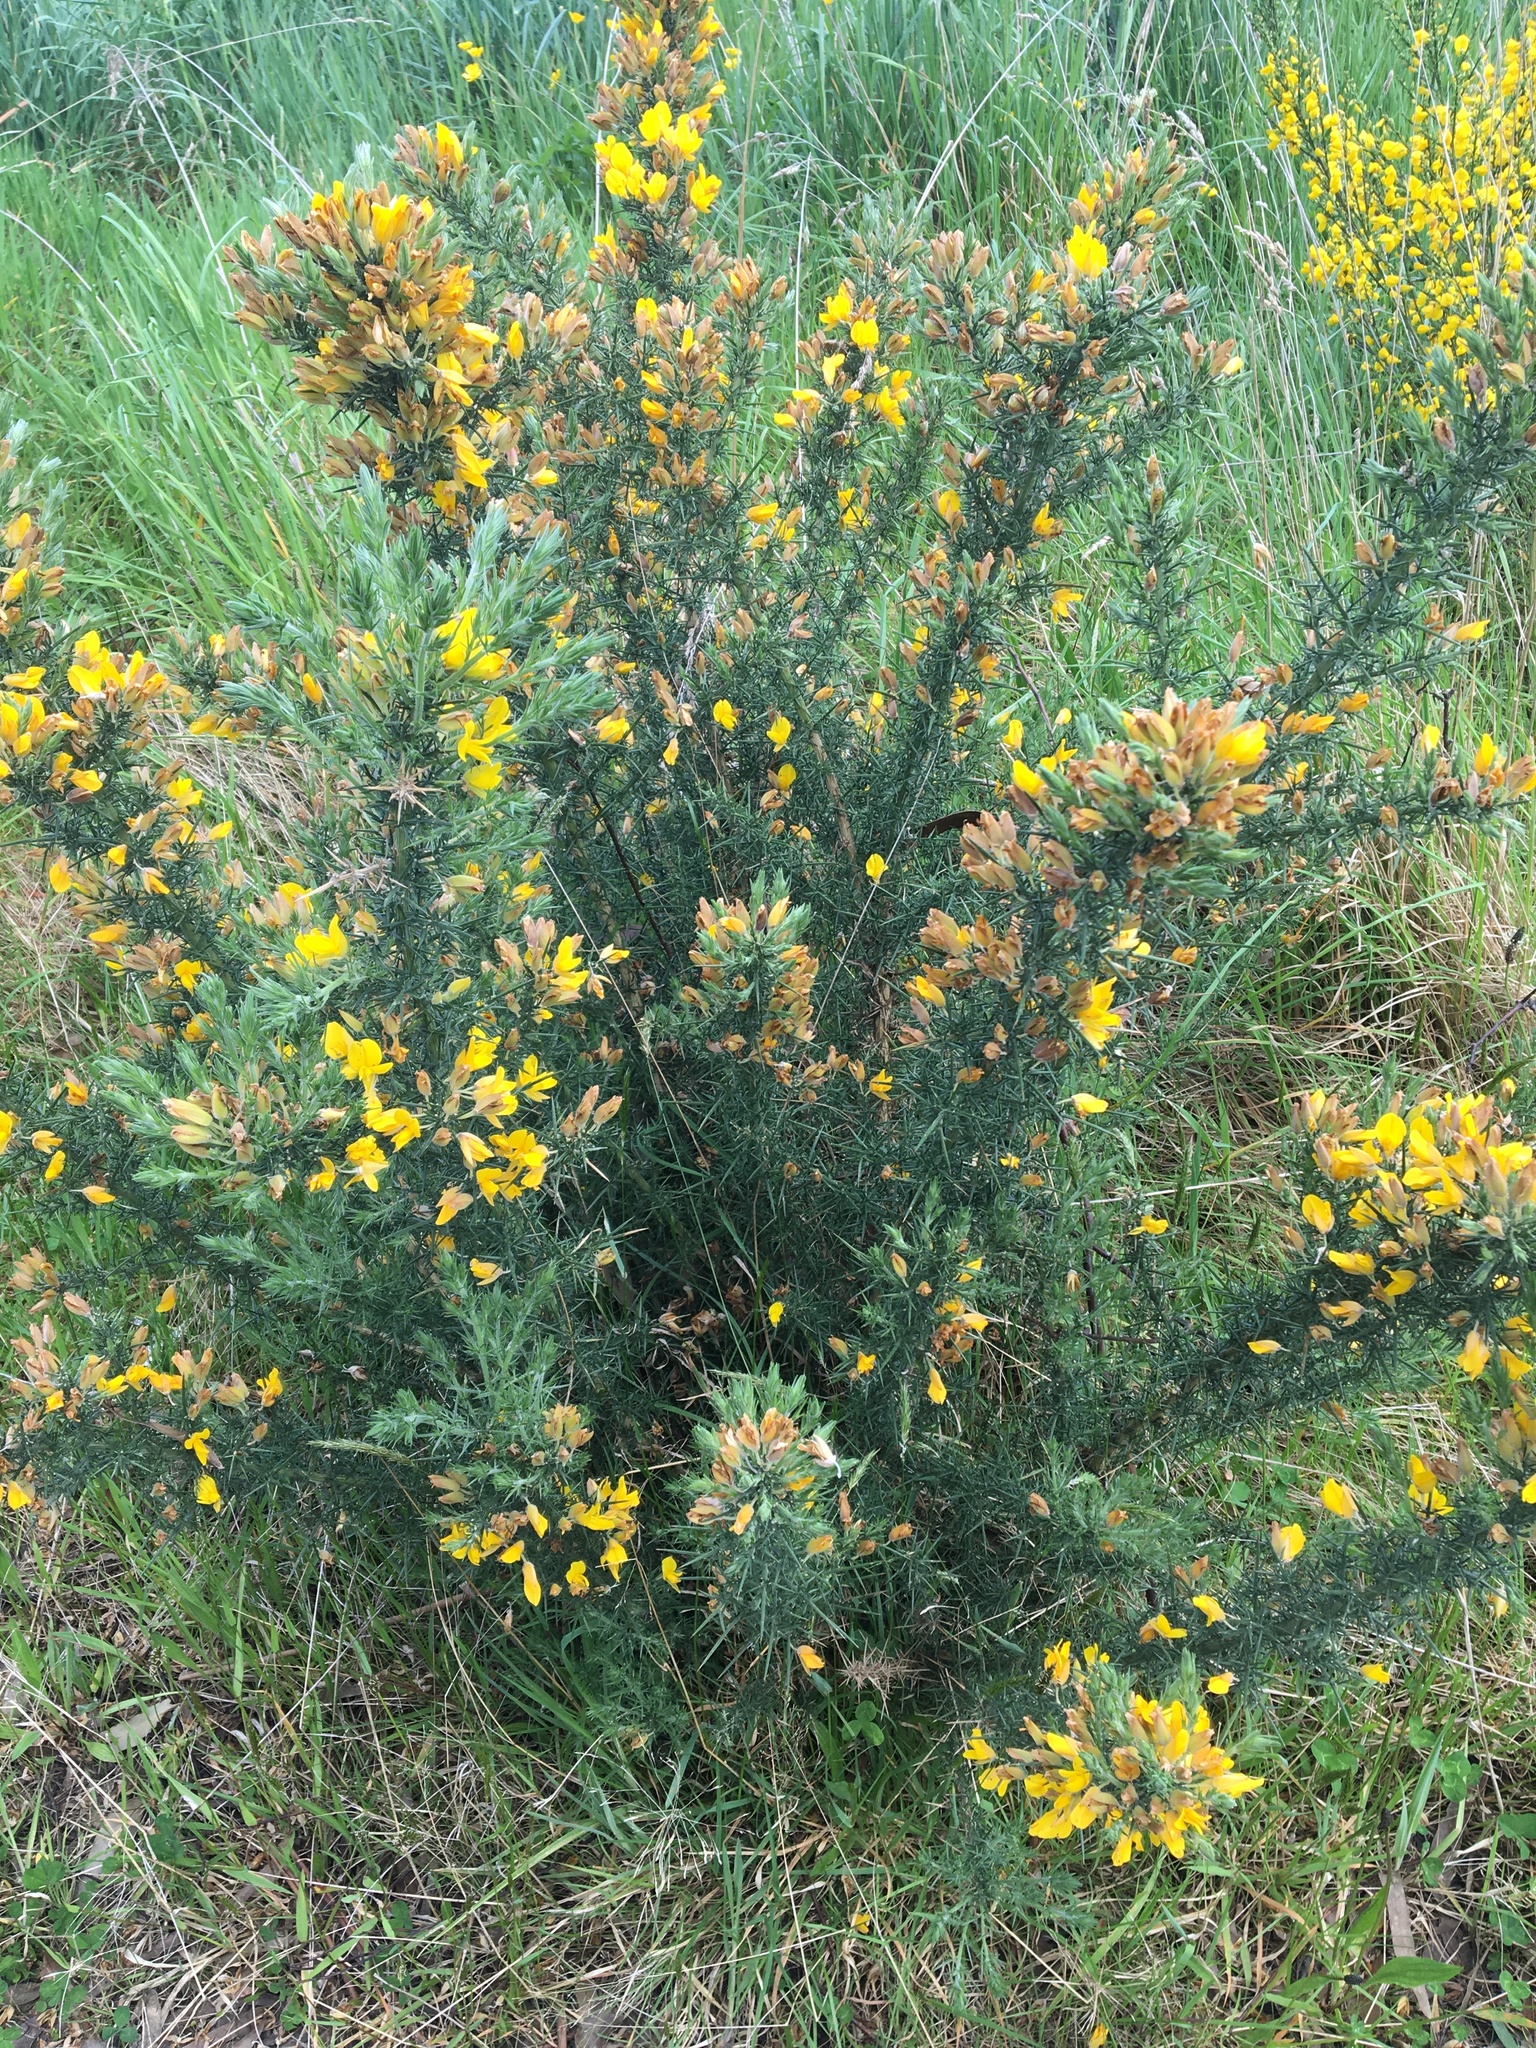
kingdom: Plantae
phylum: Tracheophyta
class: Magnoliopsida
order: Fabales
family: Fabaceae
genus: Ulex
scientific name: Ulex europaeus
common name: Common gorse
